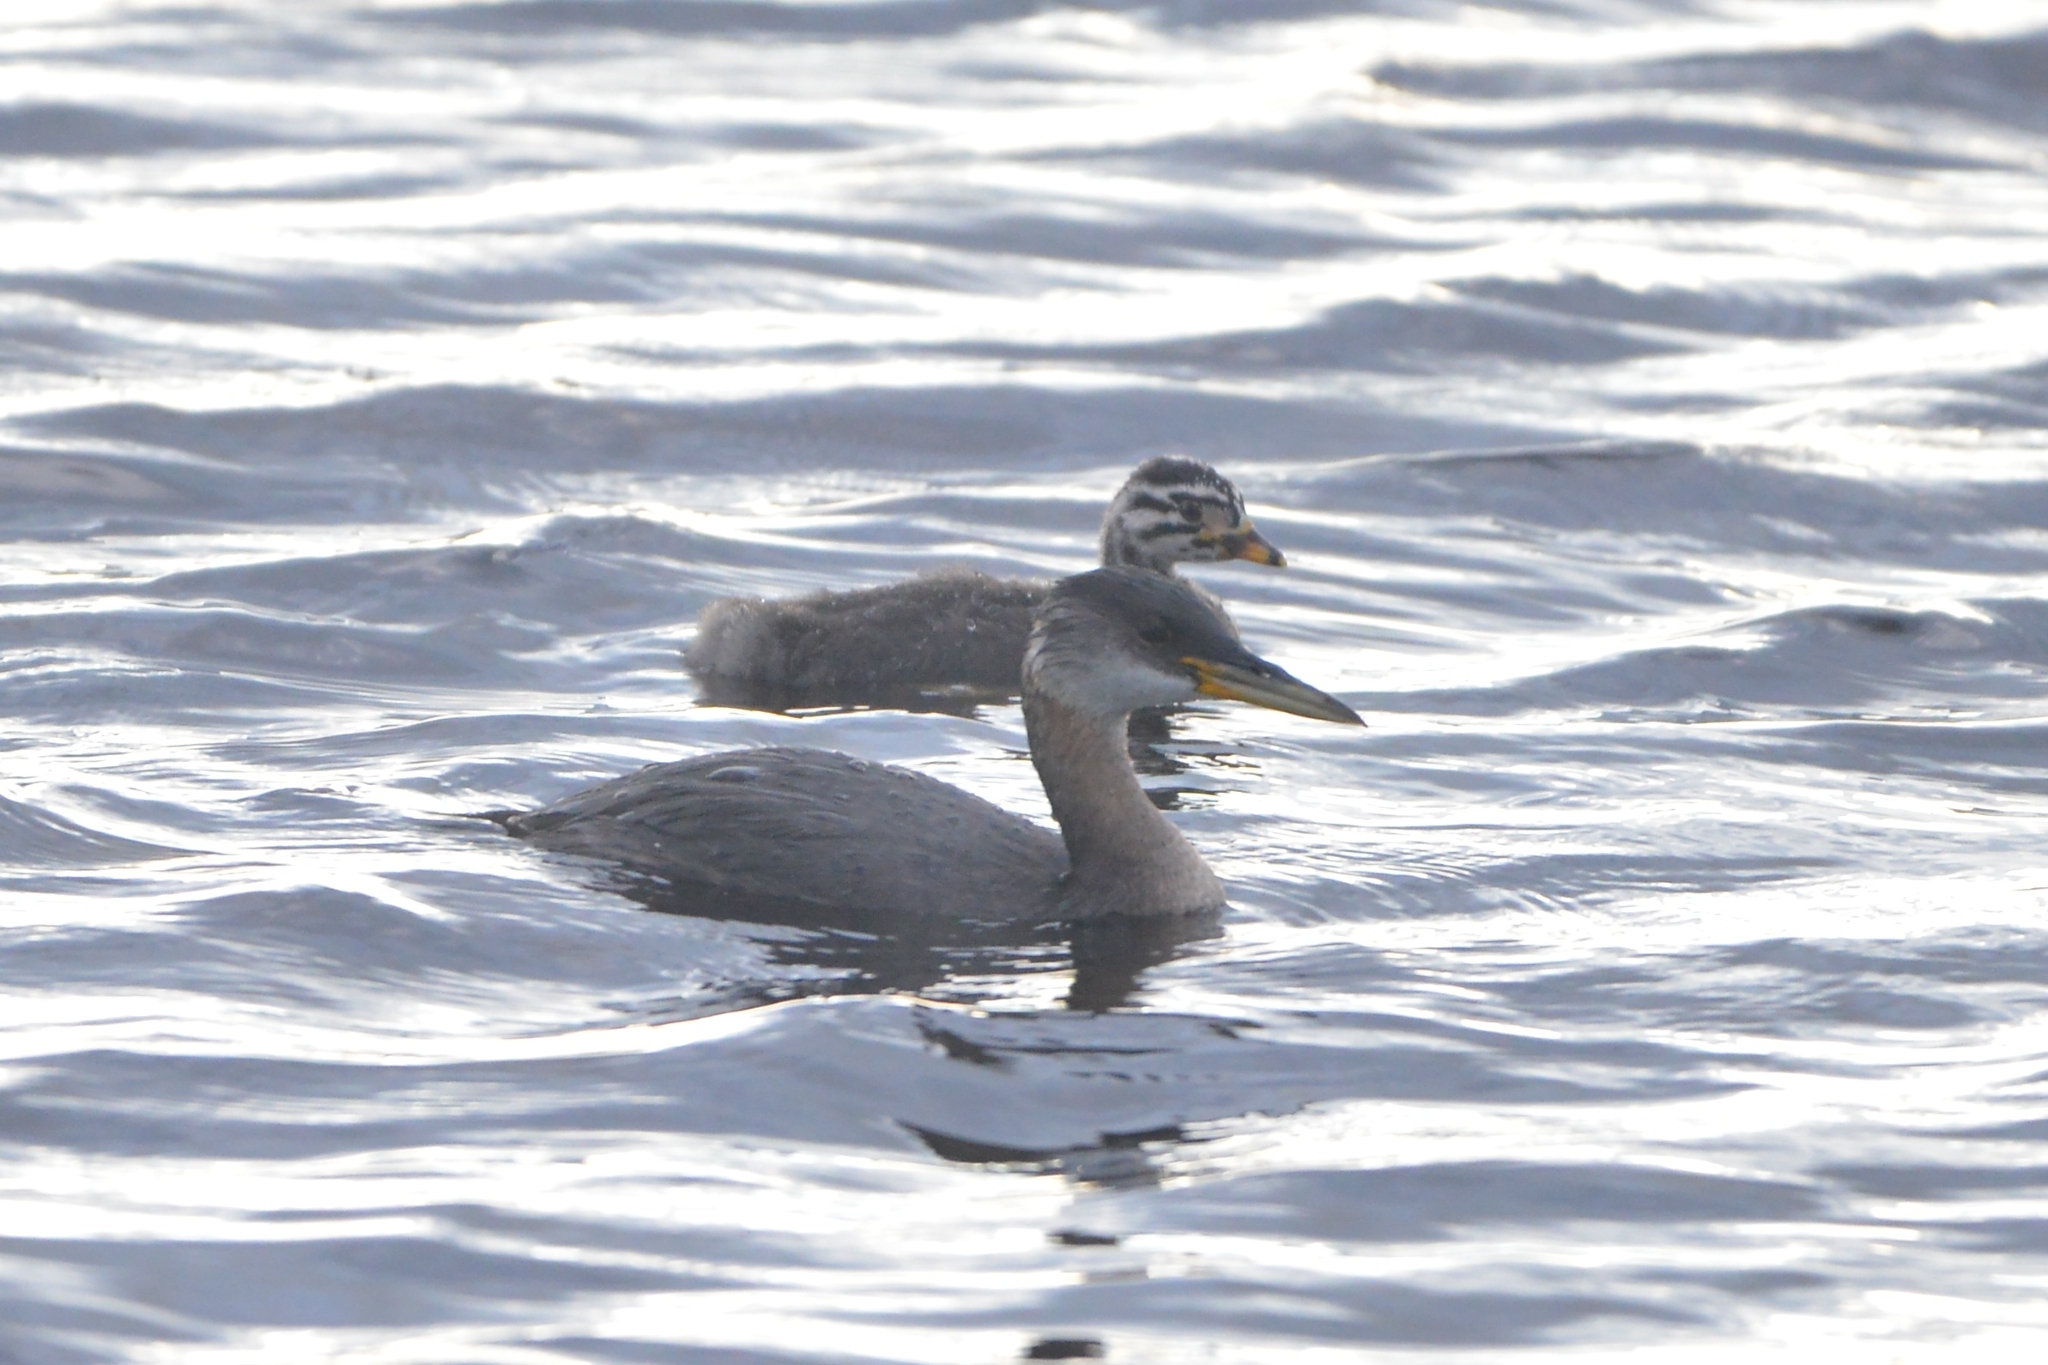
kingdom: Animalia
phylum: Chordata
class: Aves
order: Podicipediformes
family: Podicipedidae
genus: Podiceps
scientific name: Podiceps grisegena
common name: Red-necked grebe
